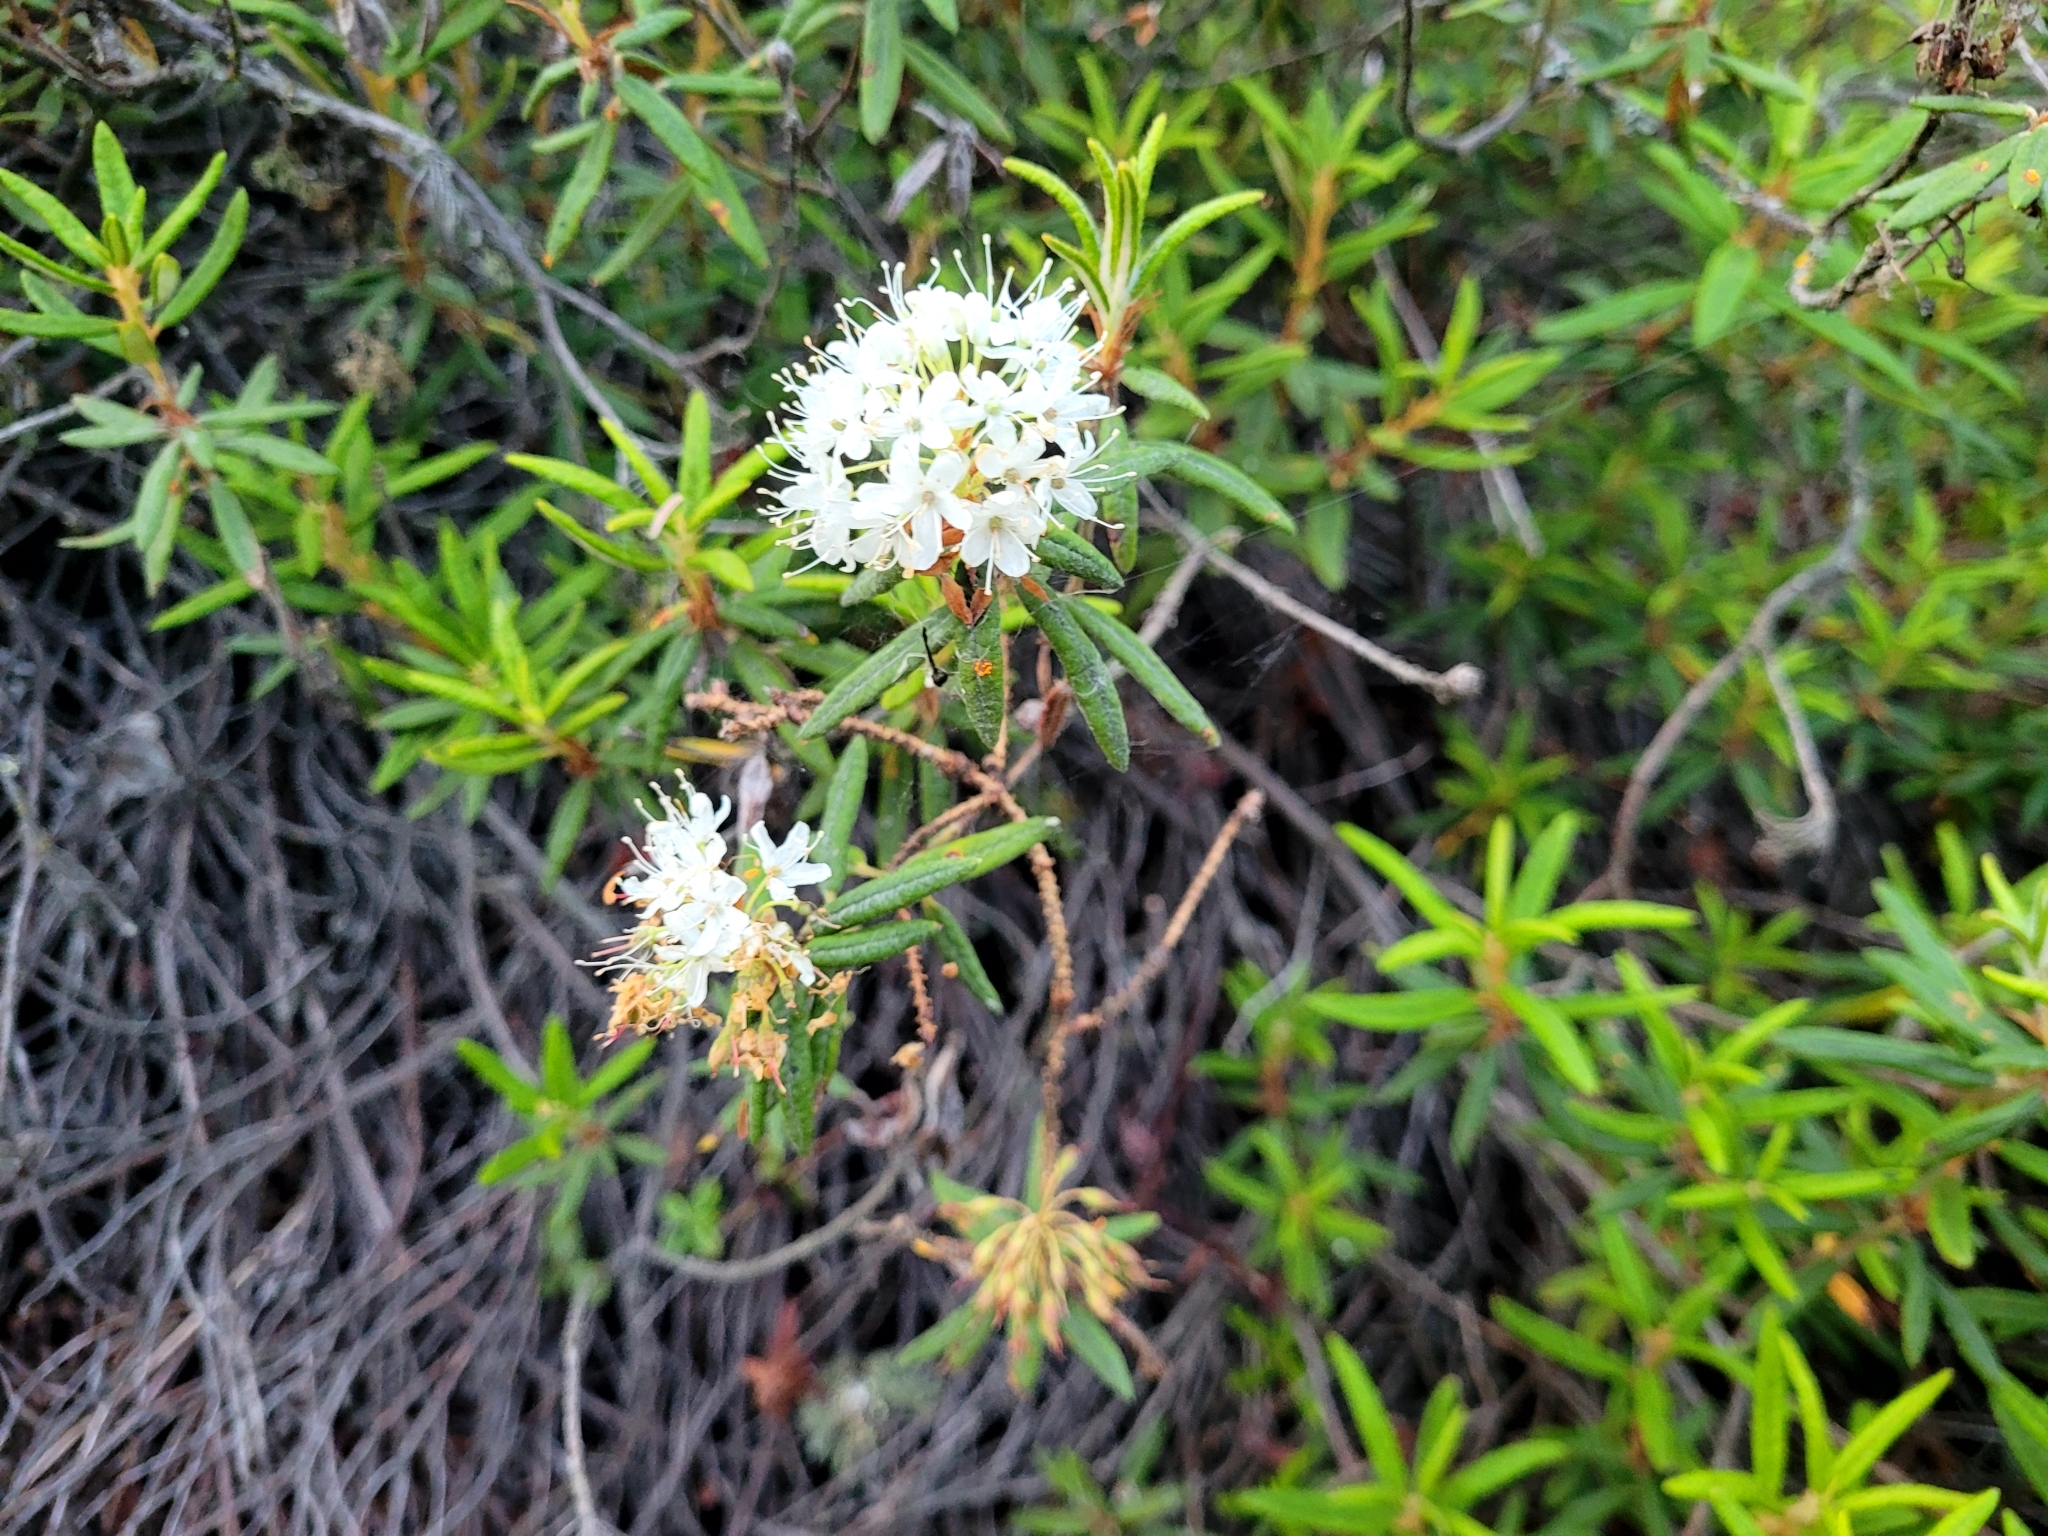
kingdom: Plantae
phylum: Tracheophyta
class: Magnoliopsida
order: Ericales
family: Ericaceae
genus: Rhododendron
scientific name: Rhododendron groenlandicum
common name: Bog labrador tea
